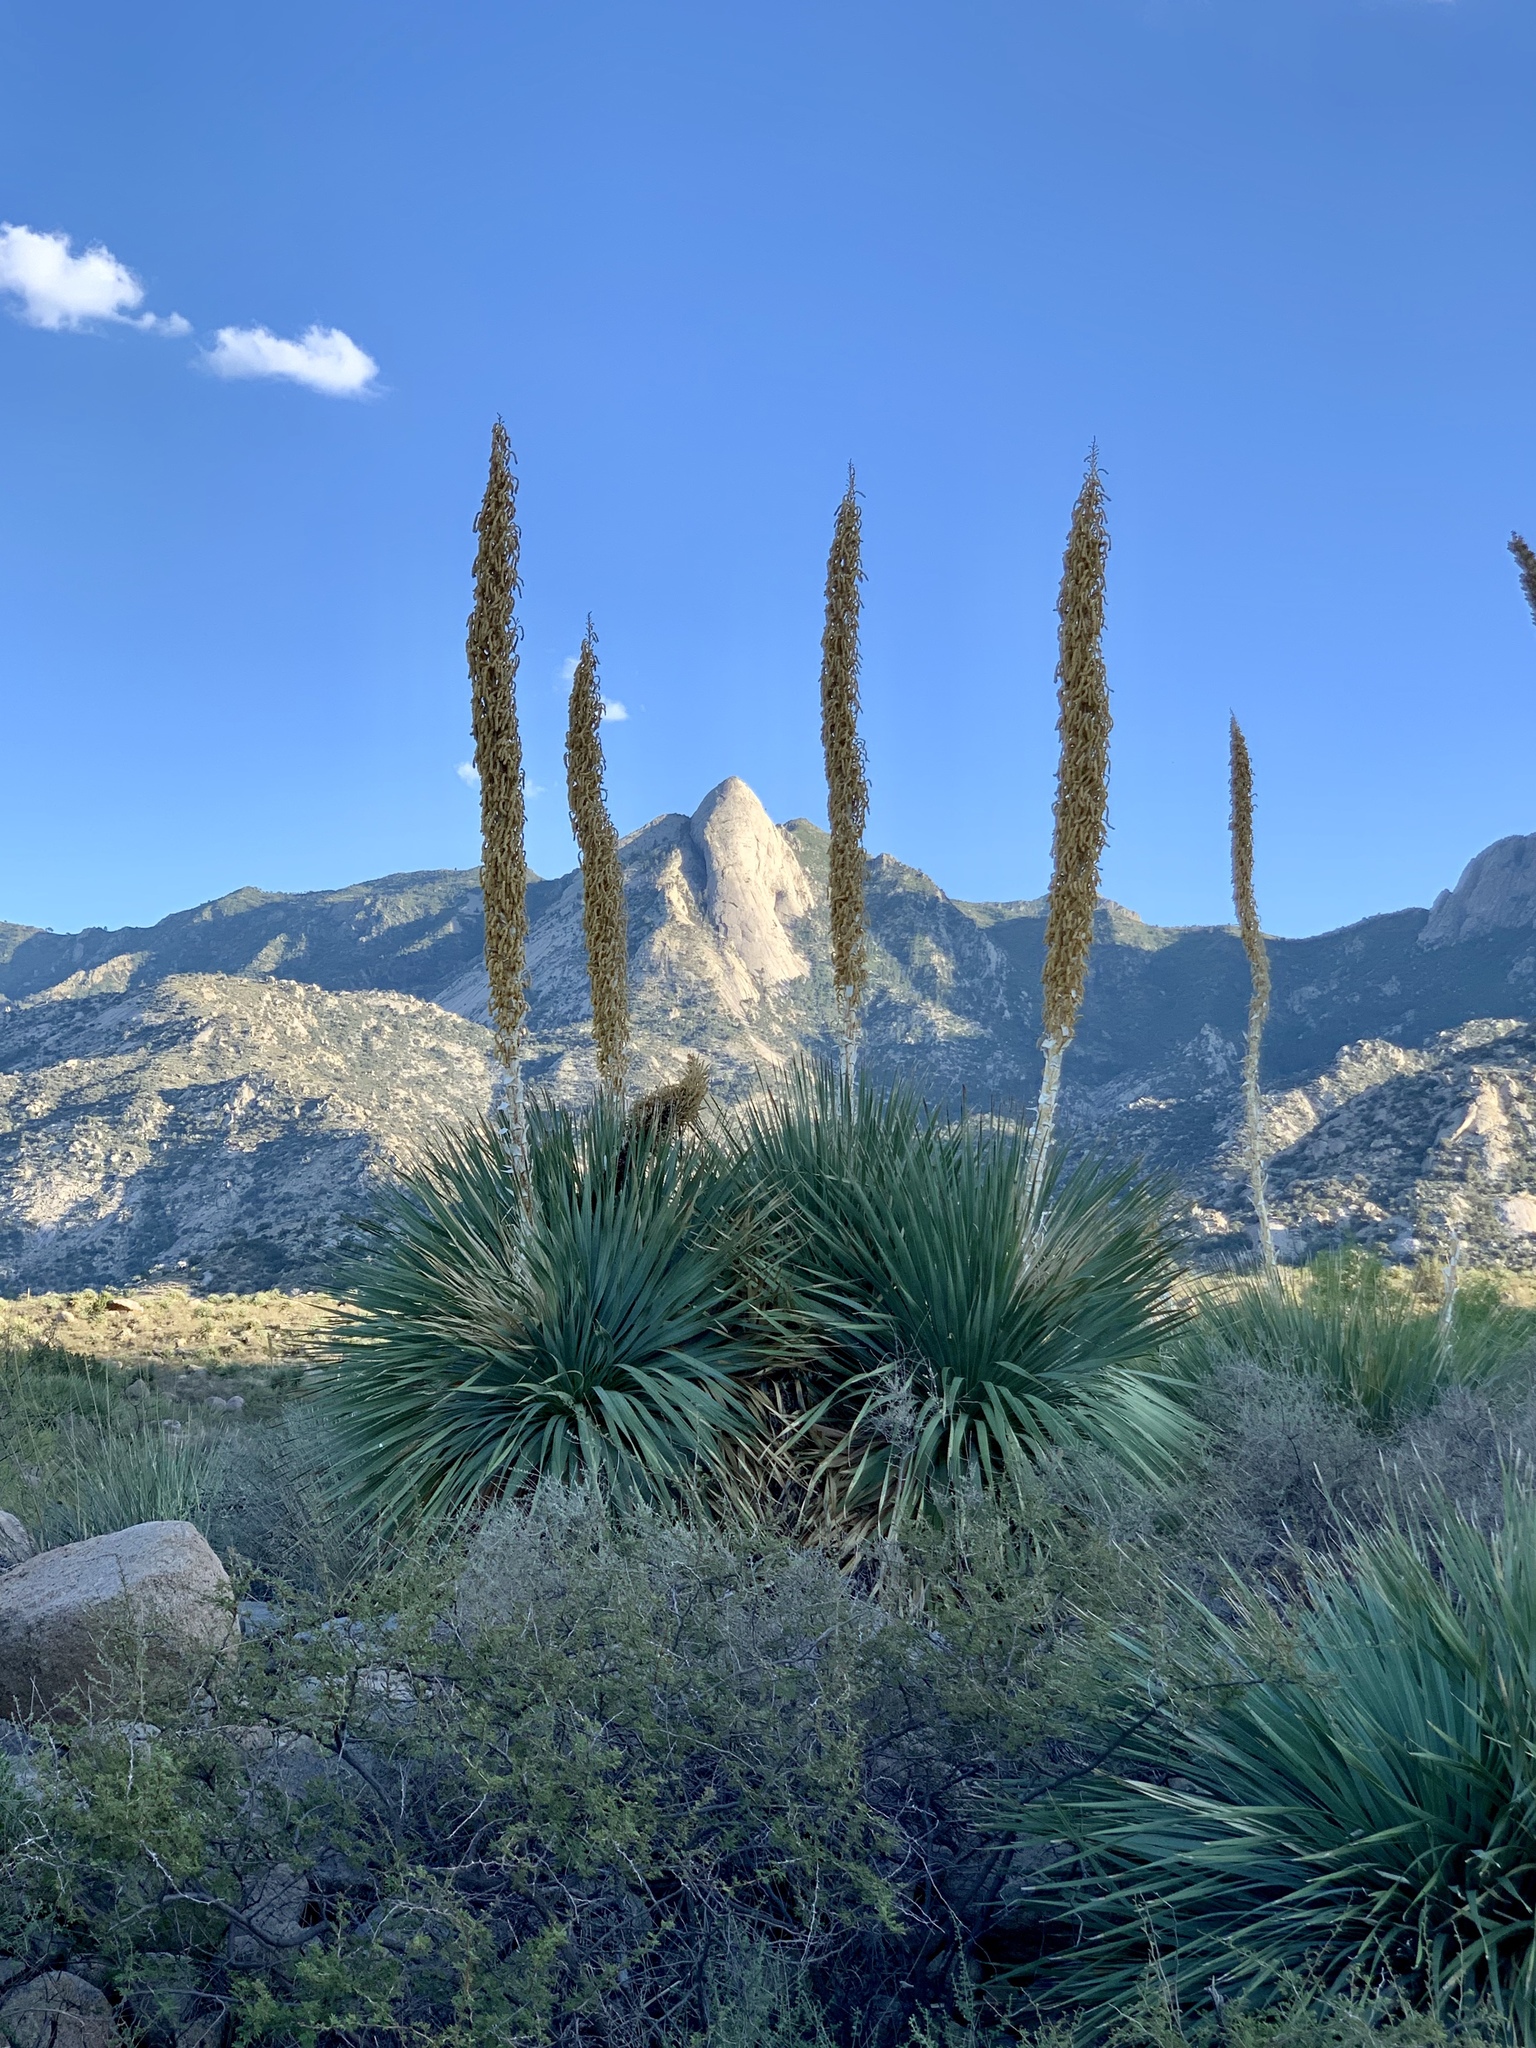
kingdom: Plantae
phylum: Tracheophyta
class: Liliopsida
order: Asparagales
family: Asparagaceae
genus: Dasylirion
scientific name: Dasylirion wheeleri
